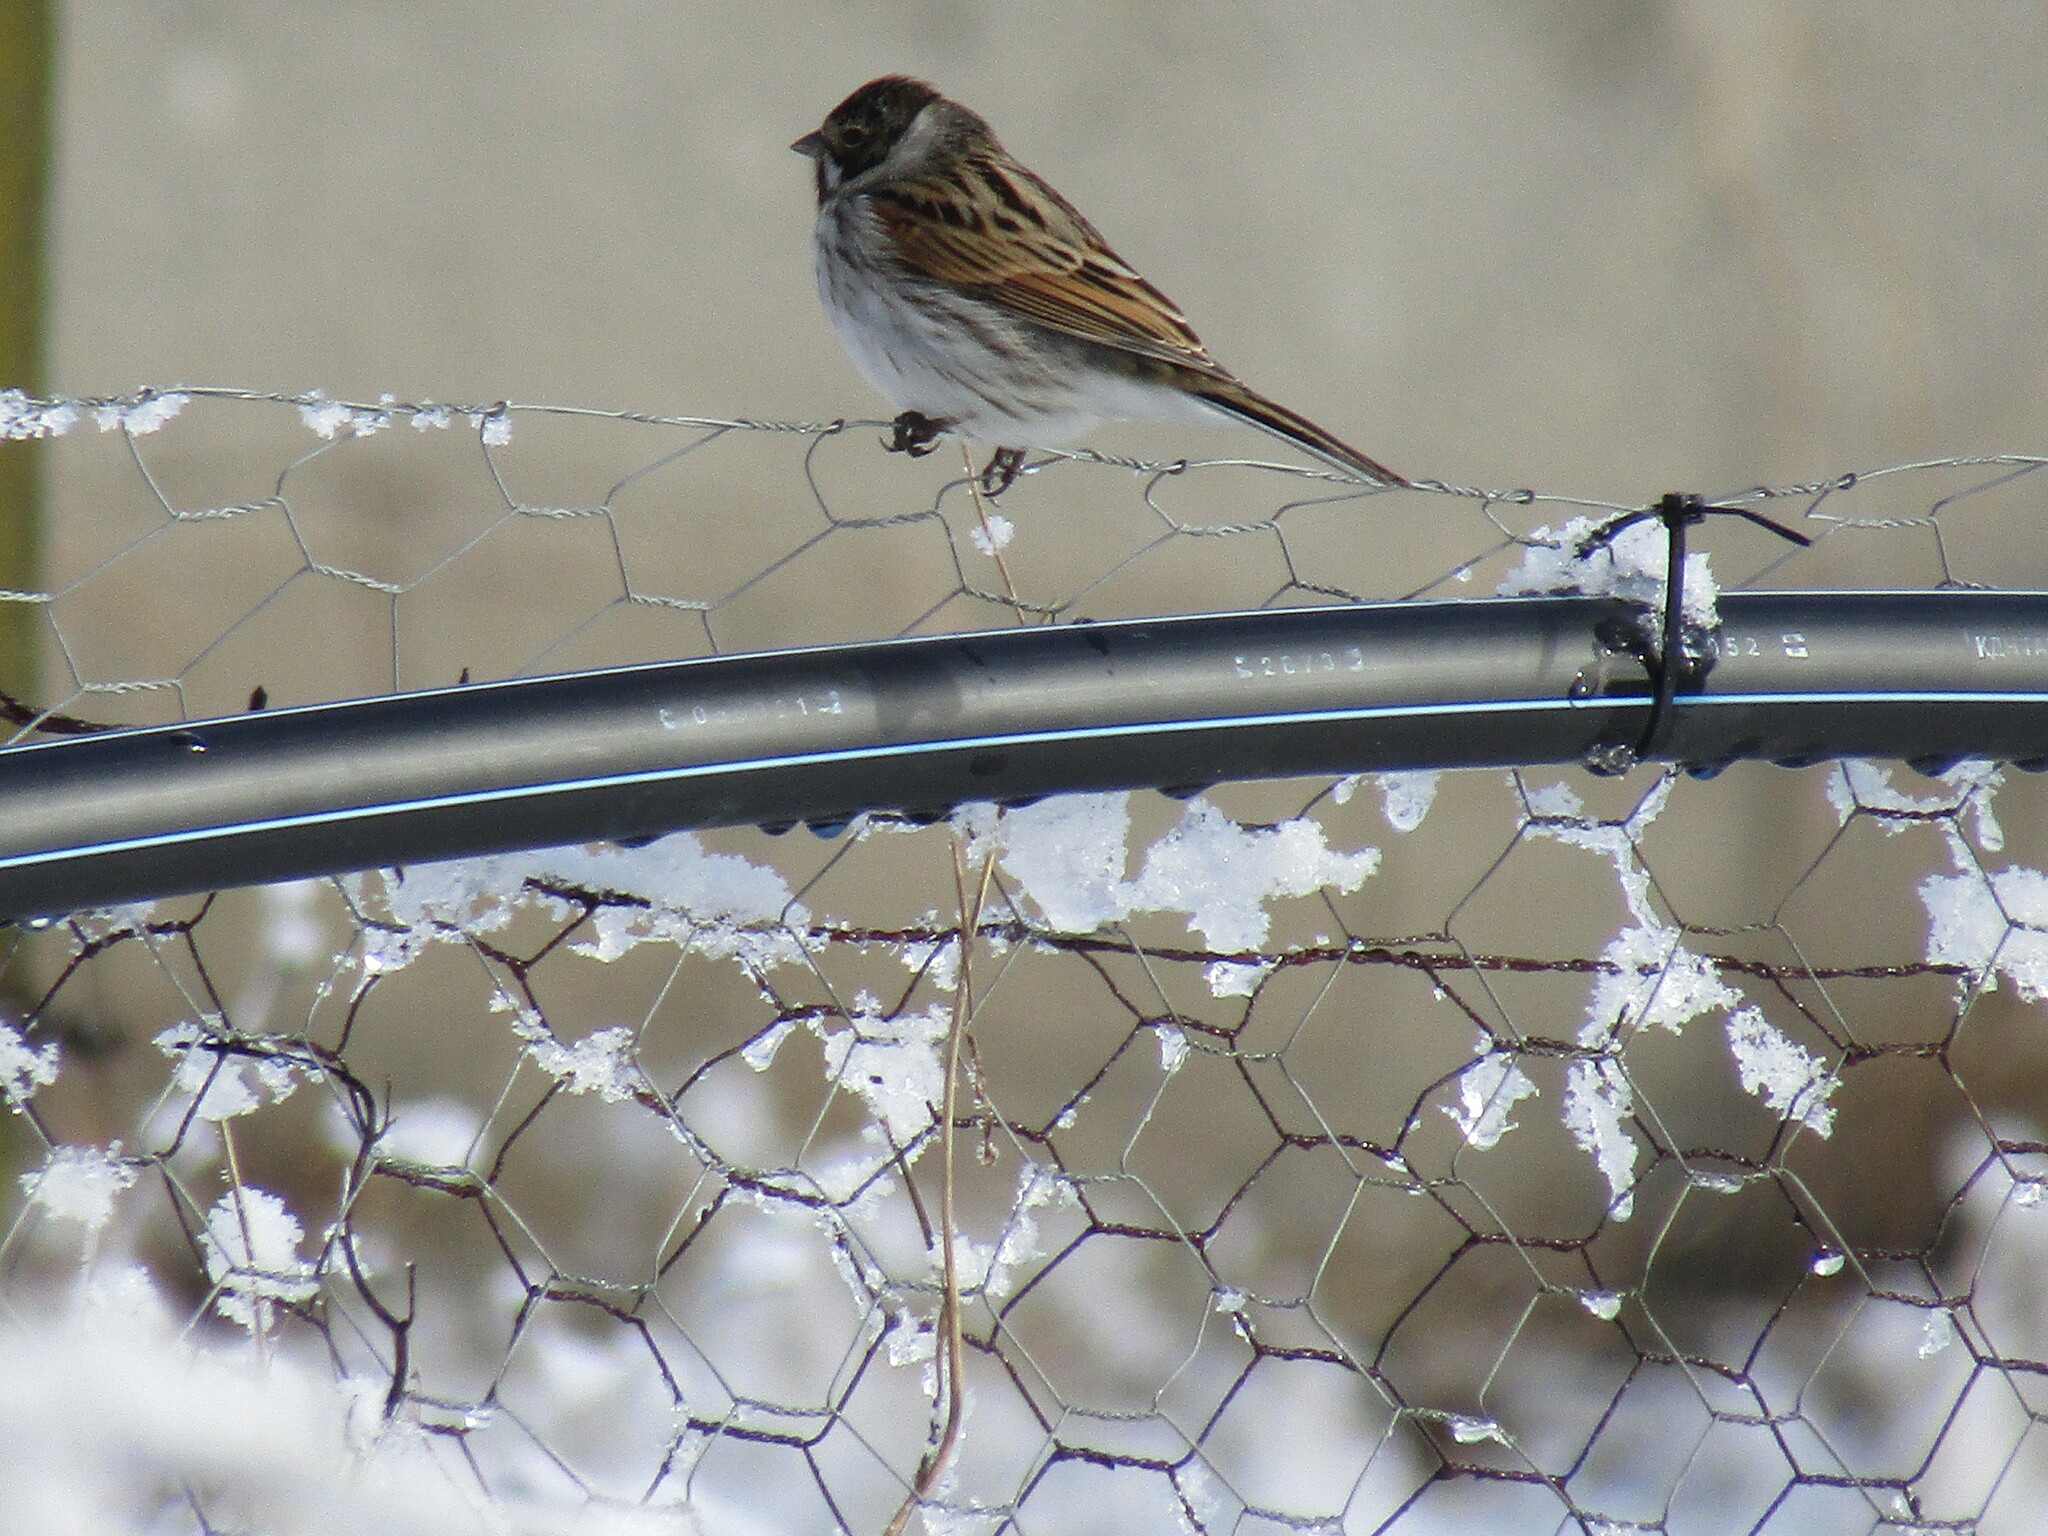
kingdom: Animalia
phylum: Chordata
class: Aves
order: Passeriformes
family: Emberizidae
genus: Emberiza
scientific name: Emberiza schoeniclus
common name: Reed bunting
